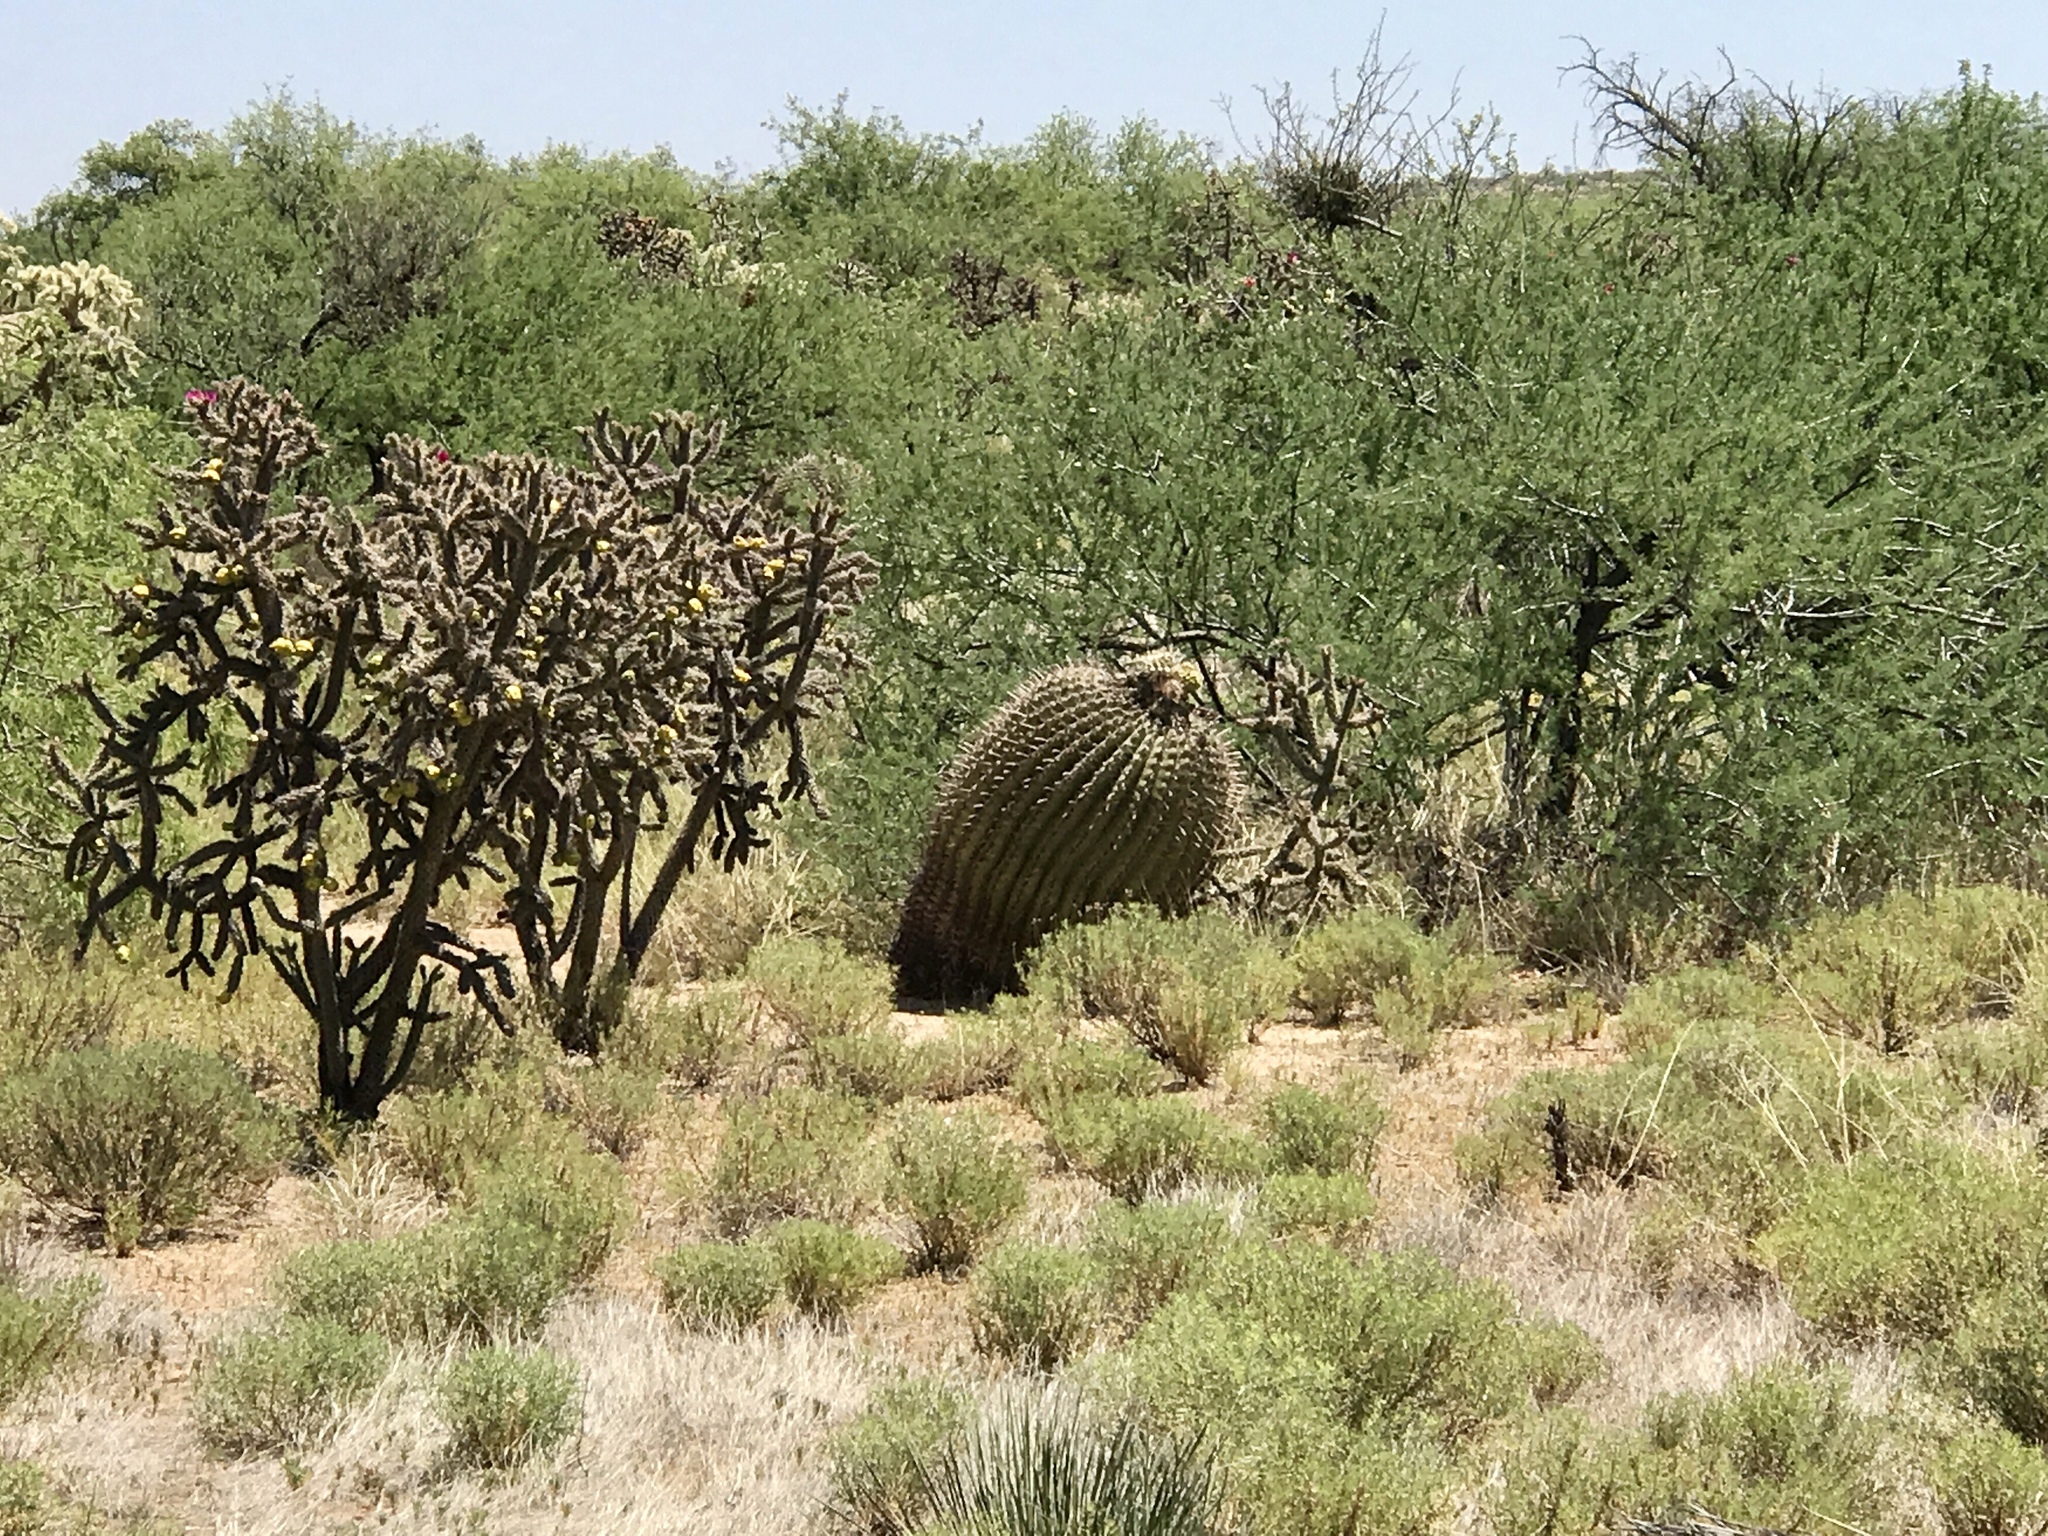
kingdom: Plantae
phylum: Tracheophyta
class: Magnoliopsida
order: Caryophyllales
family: Cactaceae
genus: Ferocactus
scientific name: Ferocactus wislizeni
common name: Candy barrel cactus
